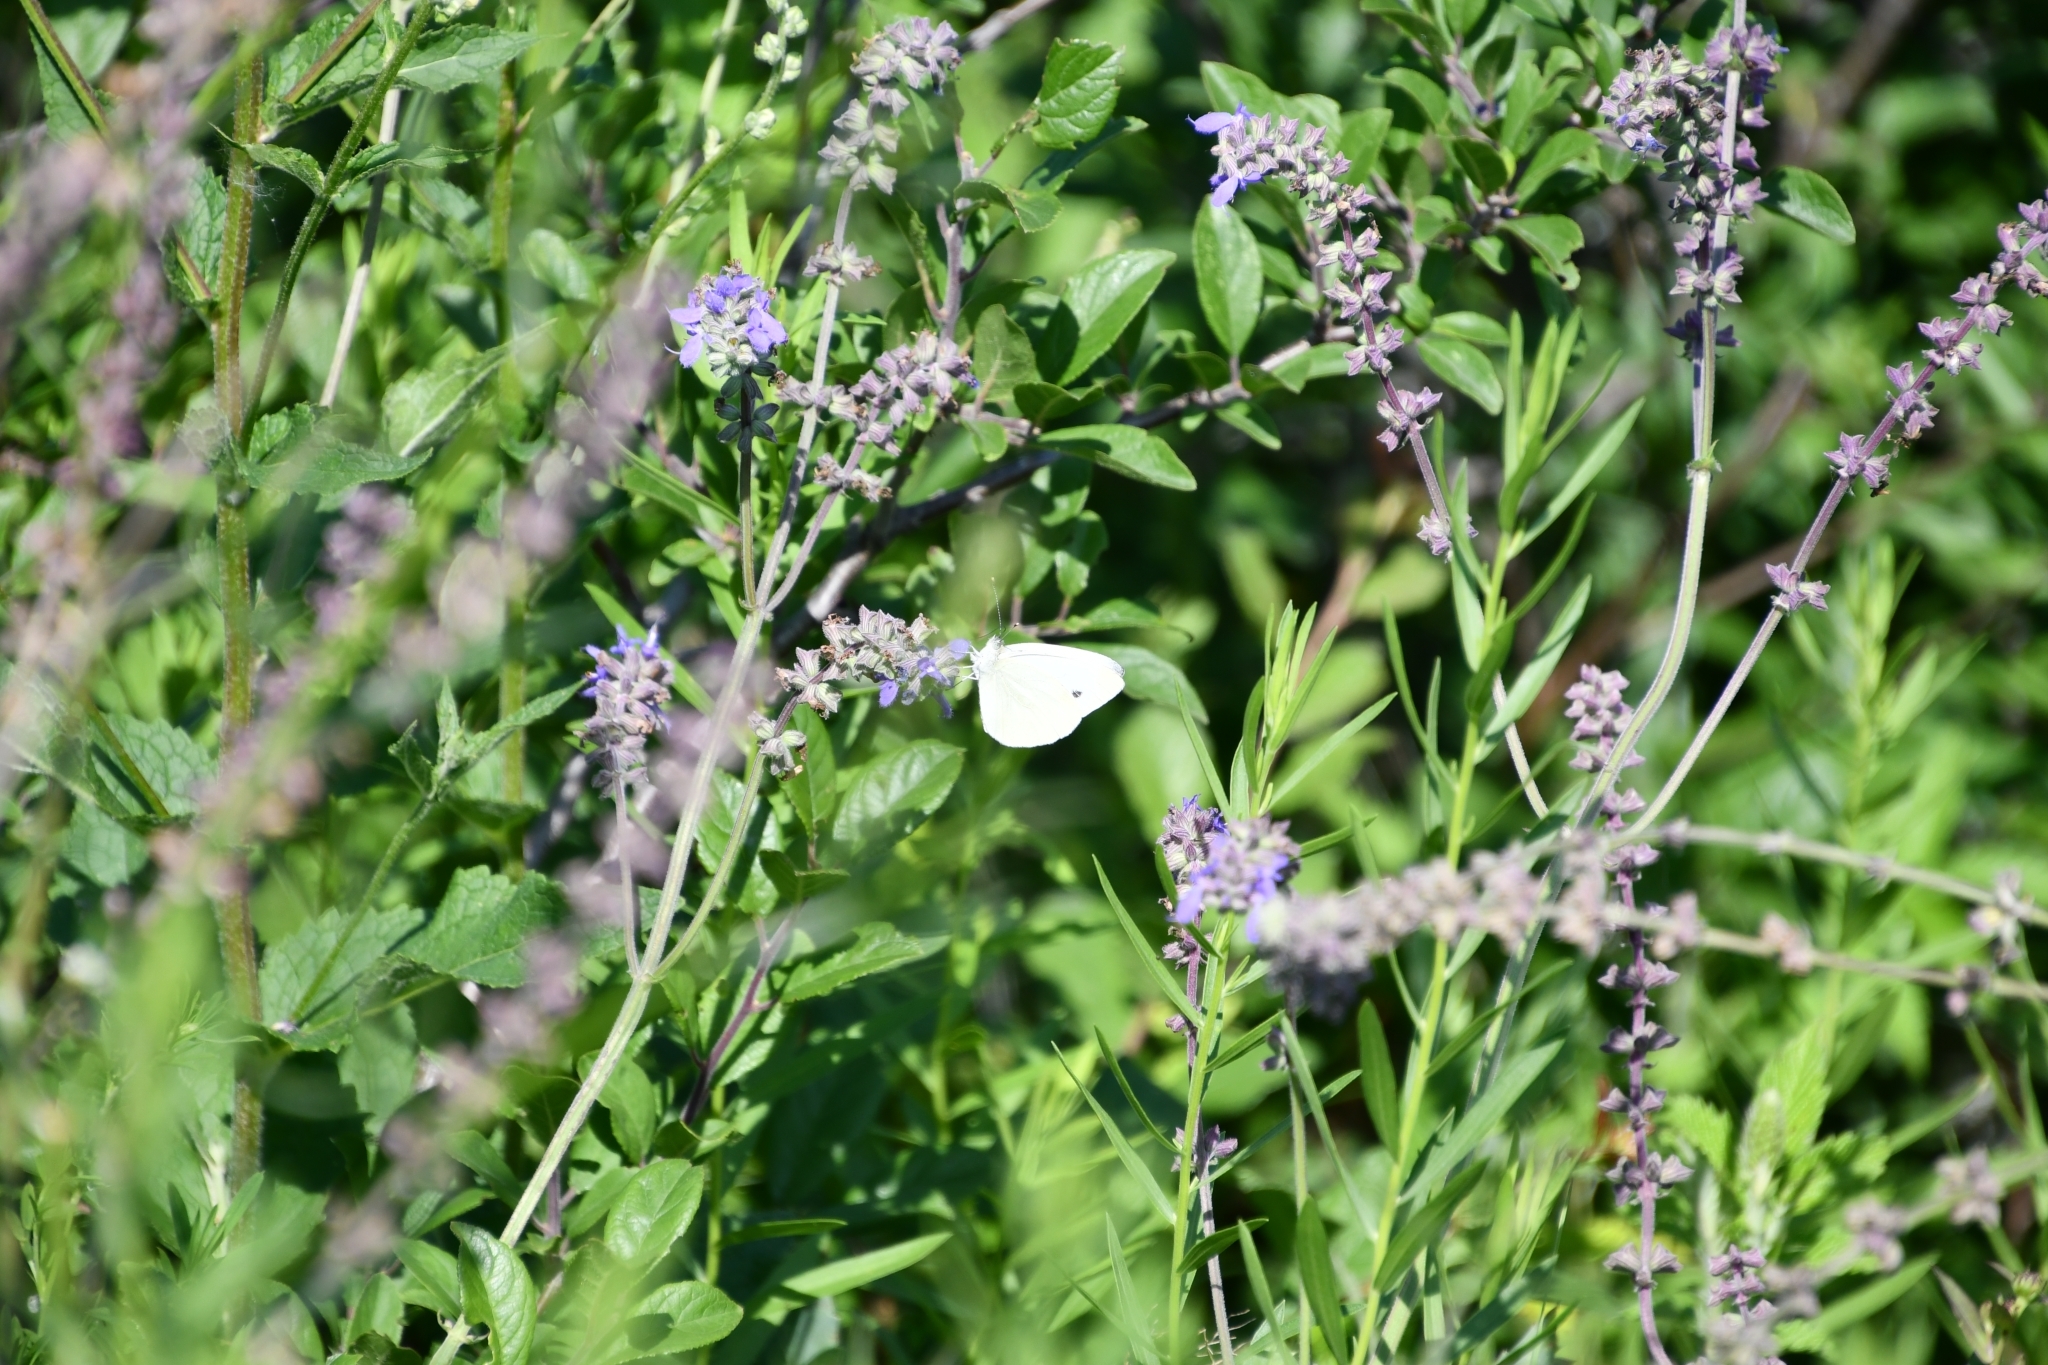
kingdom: Animalia
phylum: Arthropoda
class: Insecta
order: Lepidoptera
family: Pieridae
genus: Pieris
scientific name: Pieris napi
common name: Green-veined white
